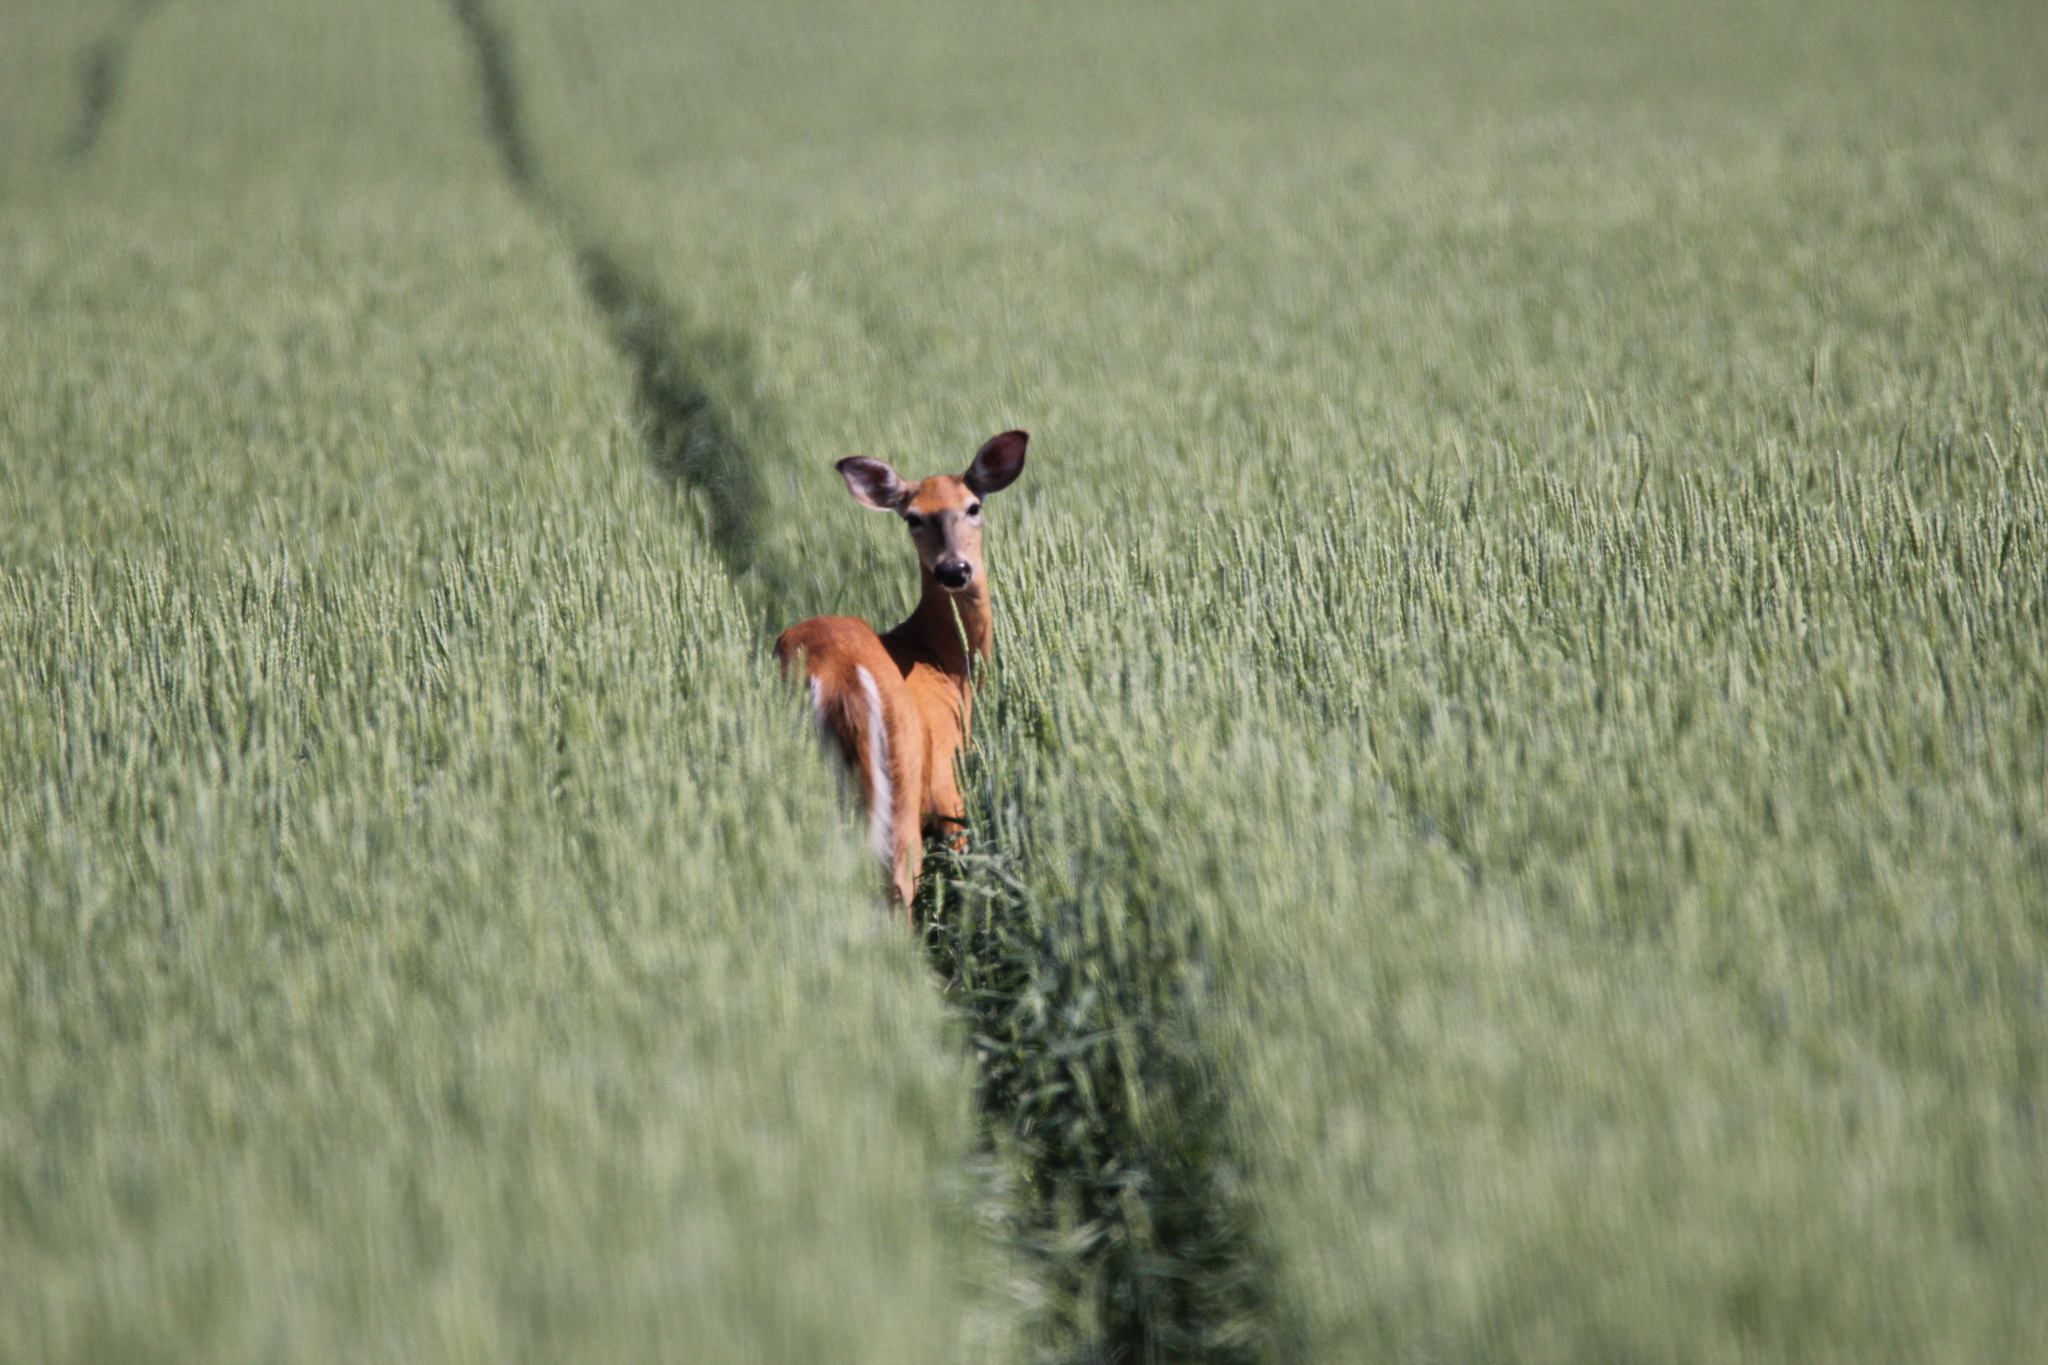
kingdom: Animalia
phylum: Chordata
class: Mammalia
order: Artiodactyla
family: Cervidae
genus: Odocoileus
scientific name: Odocoileus virginianus
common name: White-tailed deer
